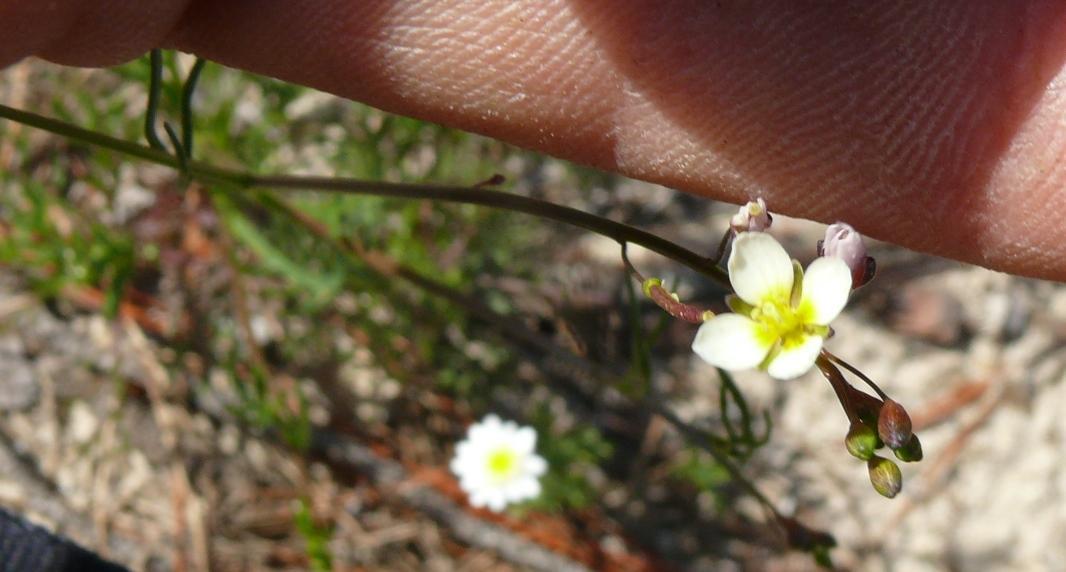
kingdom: Plantae
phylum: Tracheophyta
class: Magnoliopsida
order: Brassicales
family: Brassicaceae
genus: Heliophila
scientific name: Heliophila pendula
